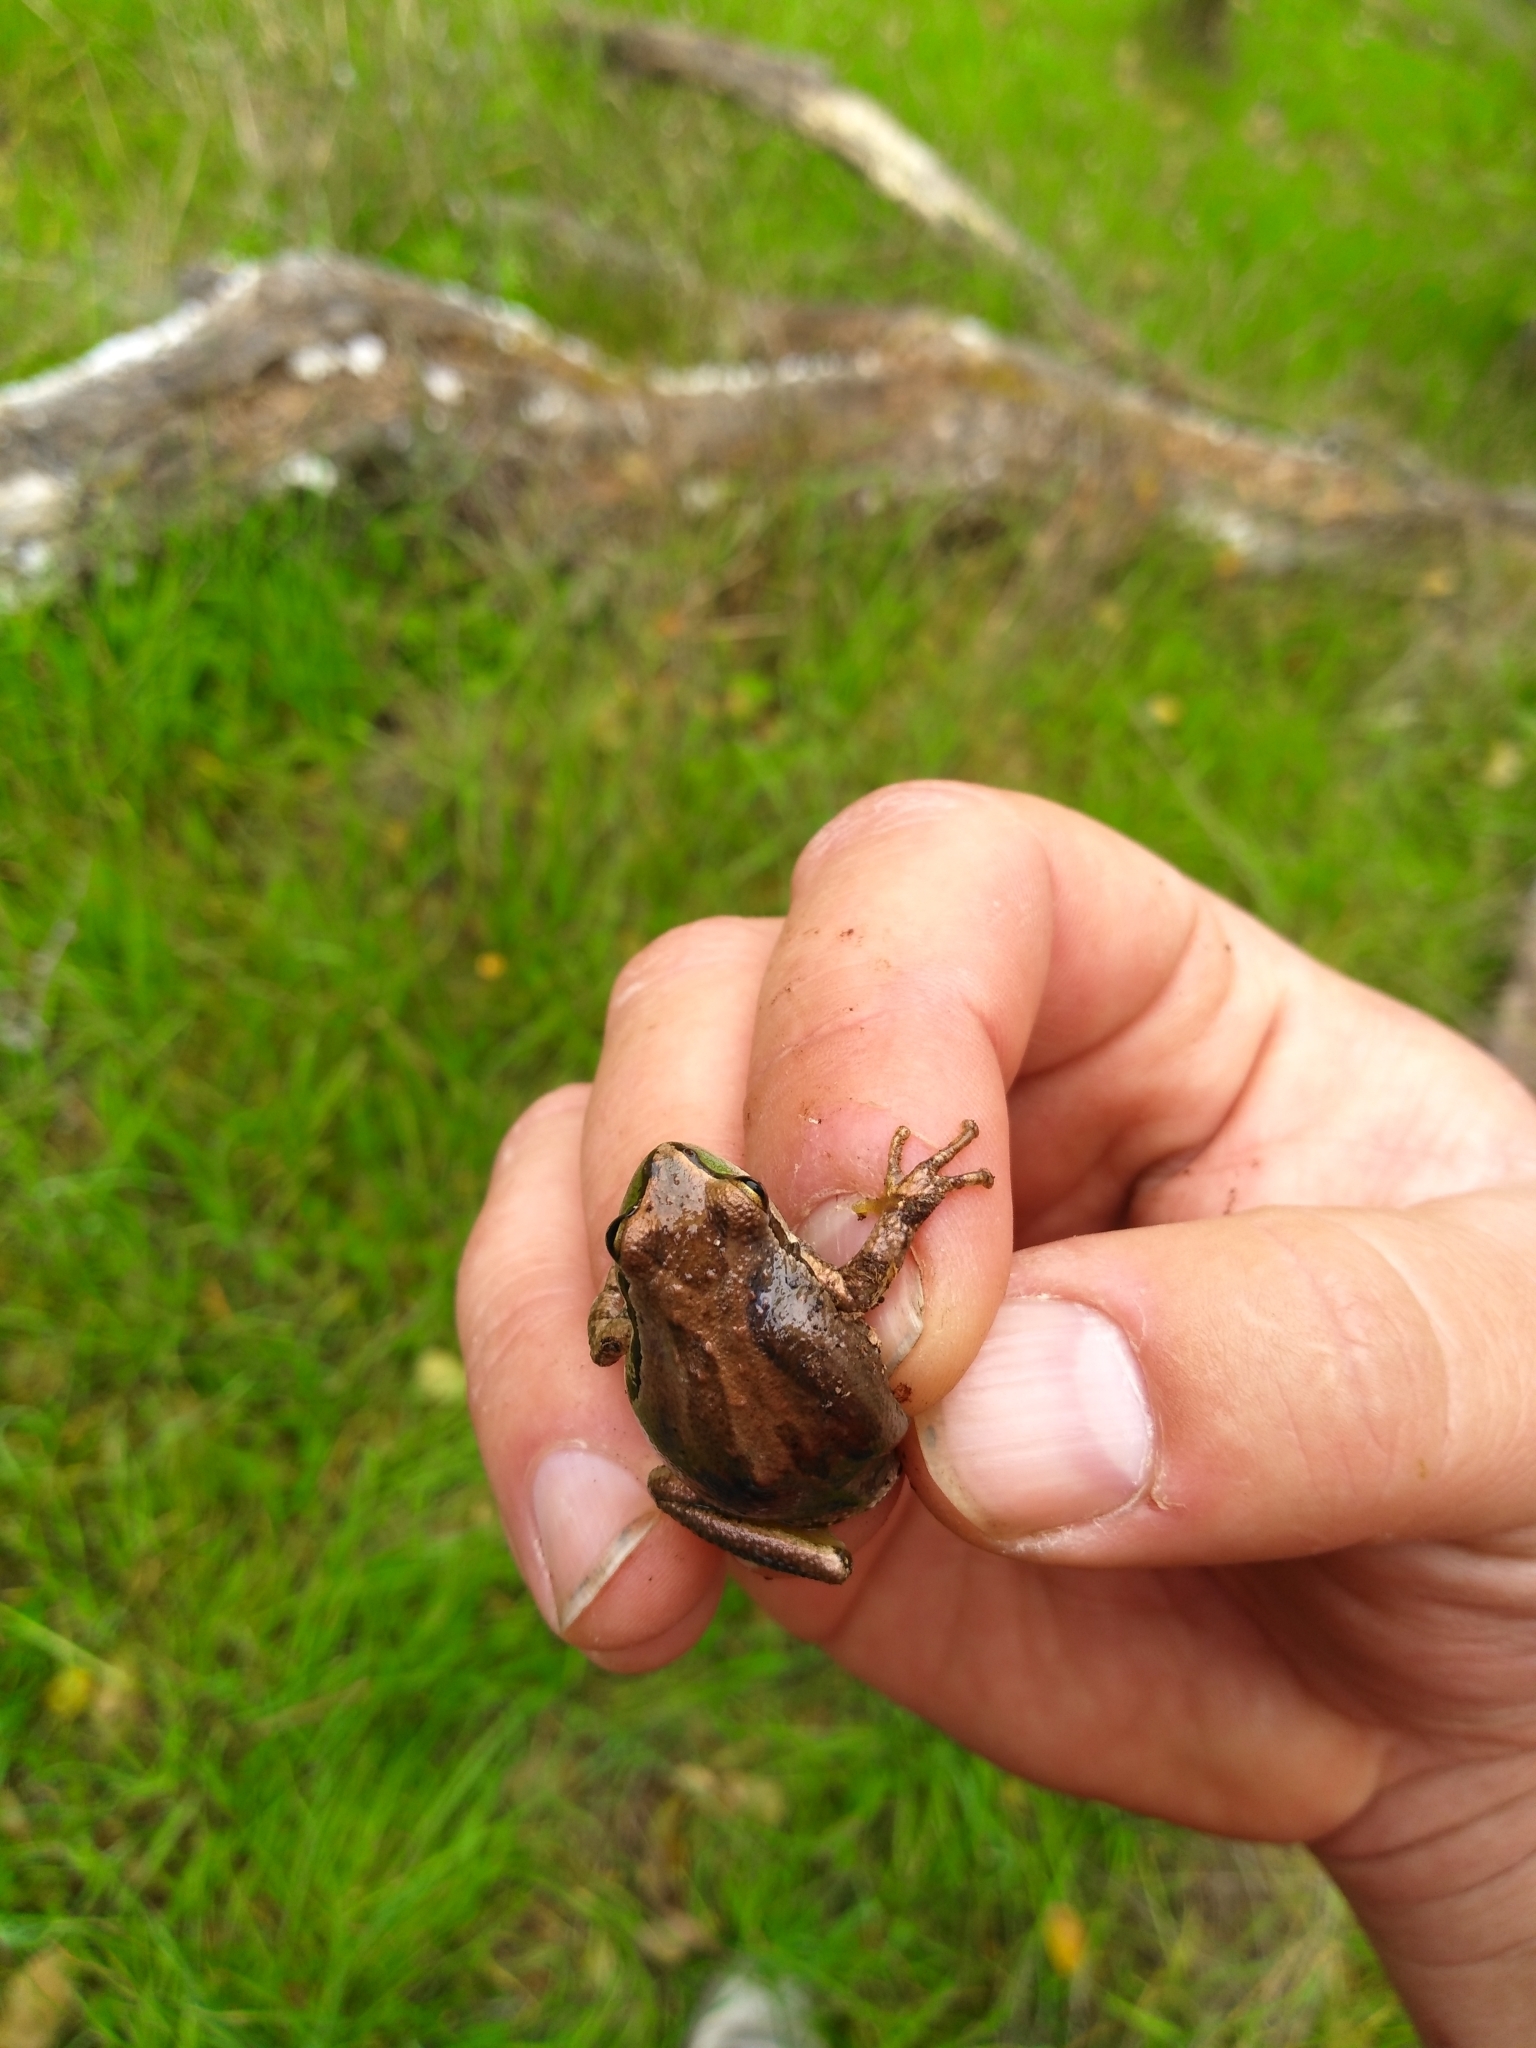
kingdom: Animalia
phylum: Chordata
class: Amphibia
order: Anura
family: Hylidae
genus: Pseudacris
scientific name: Pseudacris regilla
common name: Pacific chorus frog
